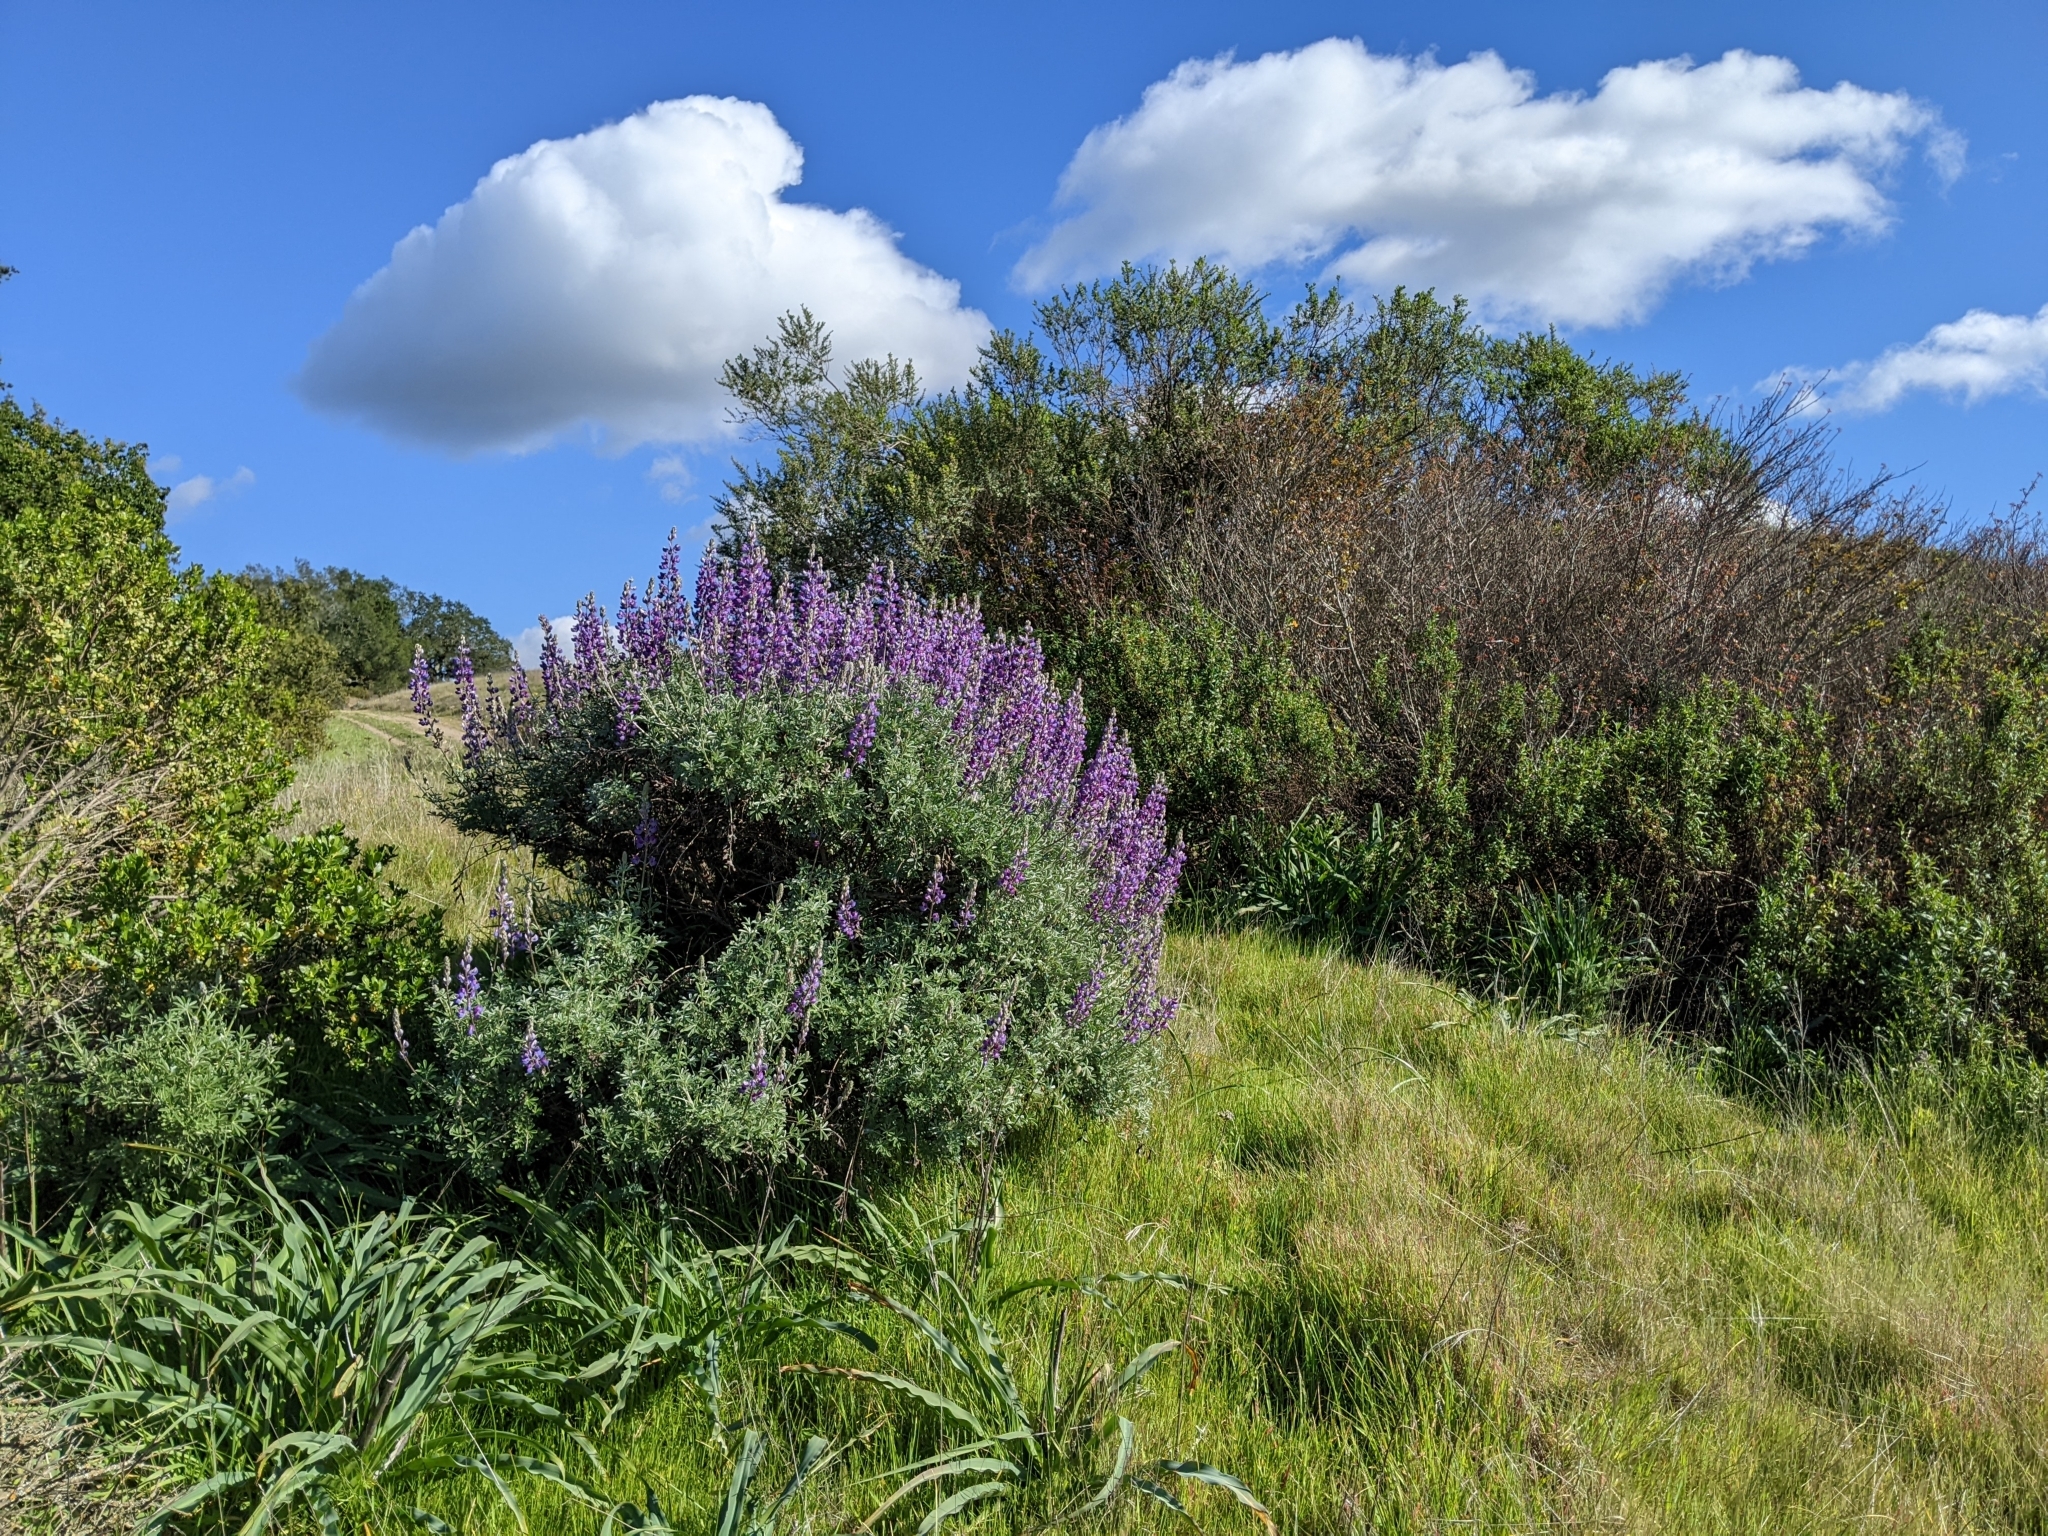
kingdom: Plantae
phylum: Tracheophyta
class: Magnoliopsida
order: Fabales
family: Fabaceae
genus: Lupinus
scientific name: Lupinus albifrons
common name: Foothill lupine
